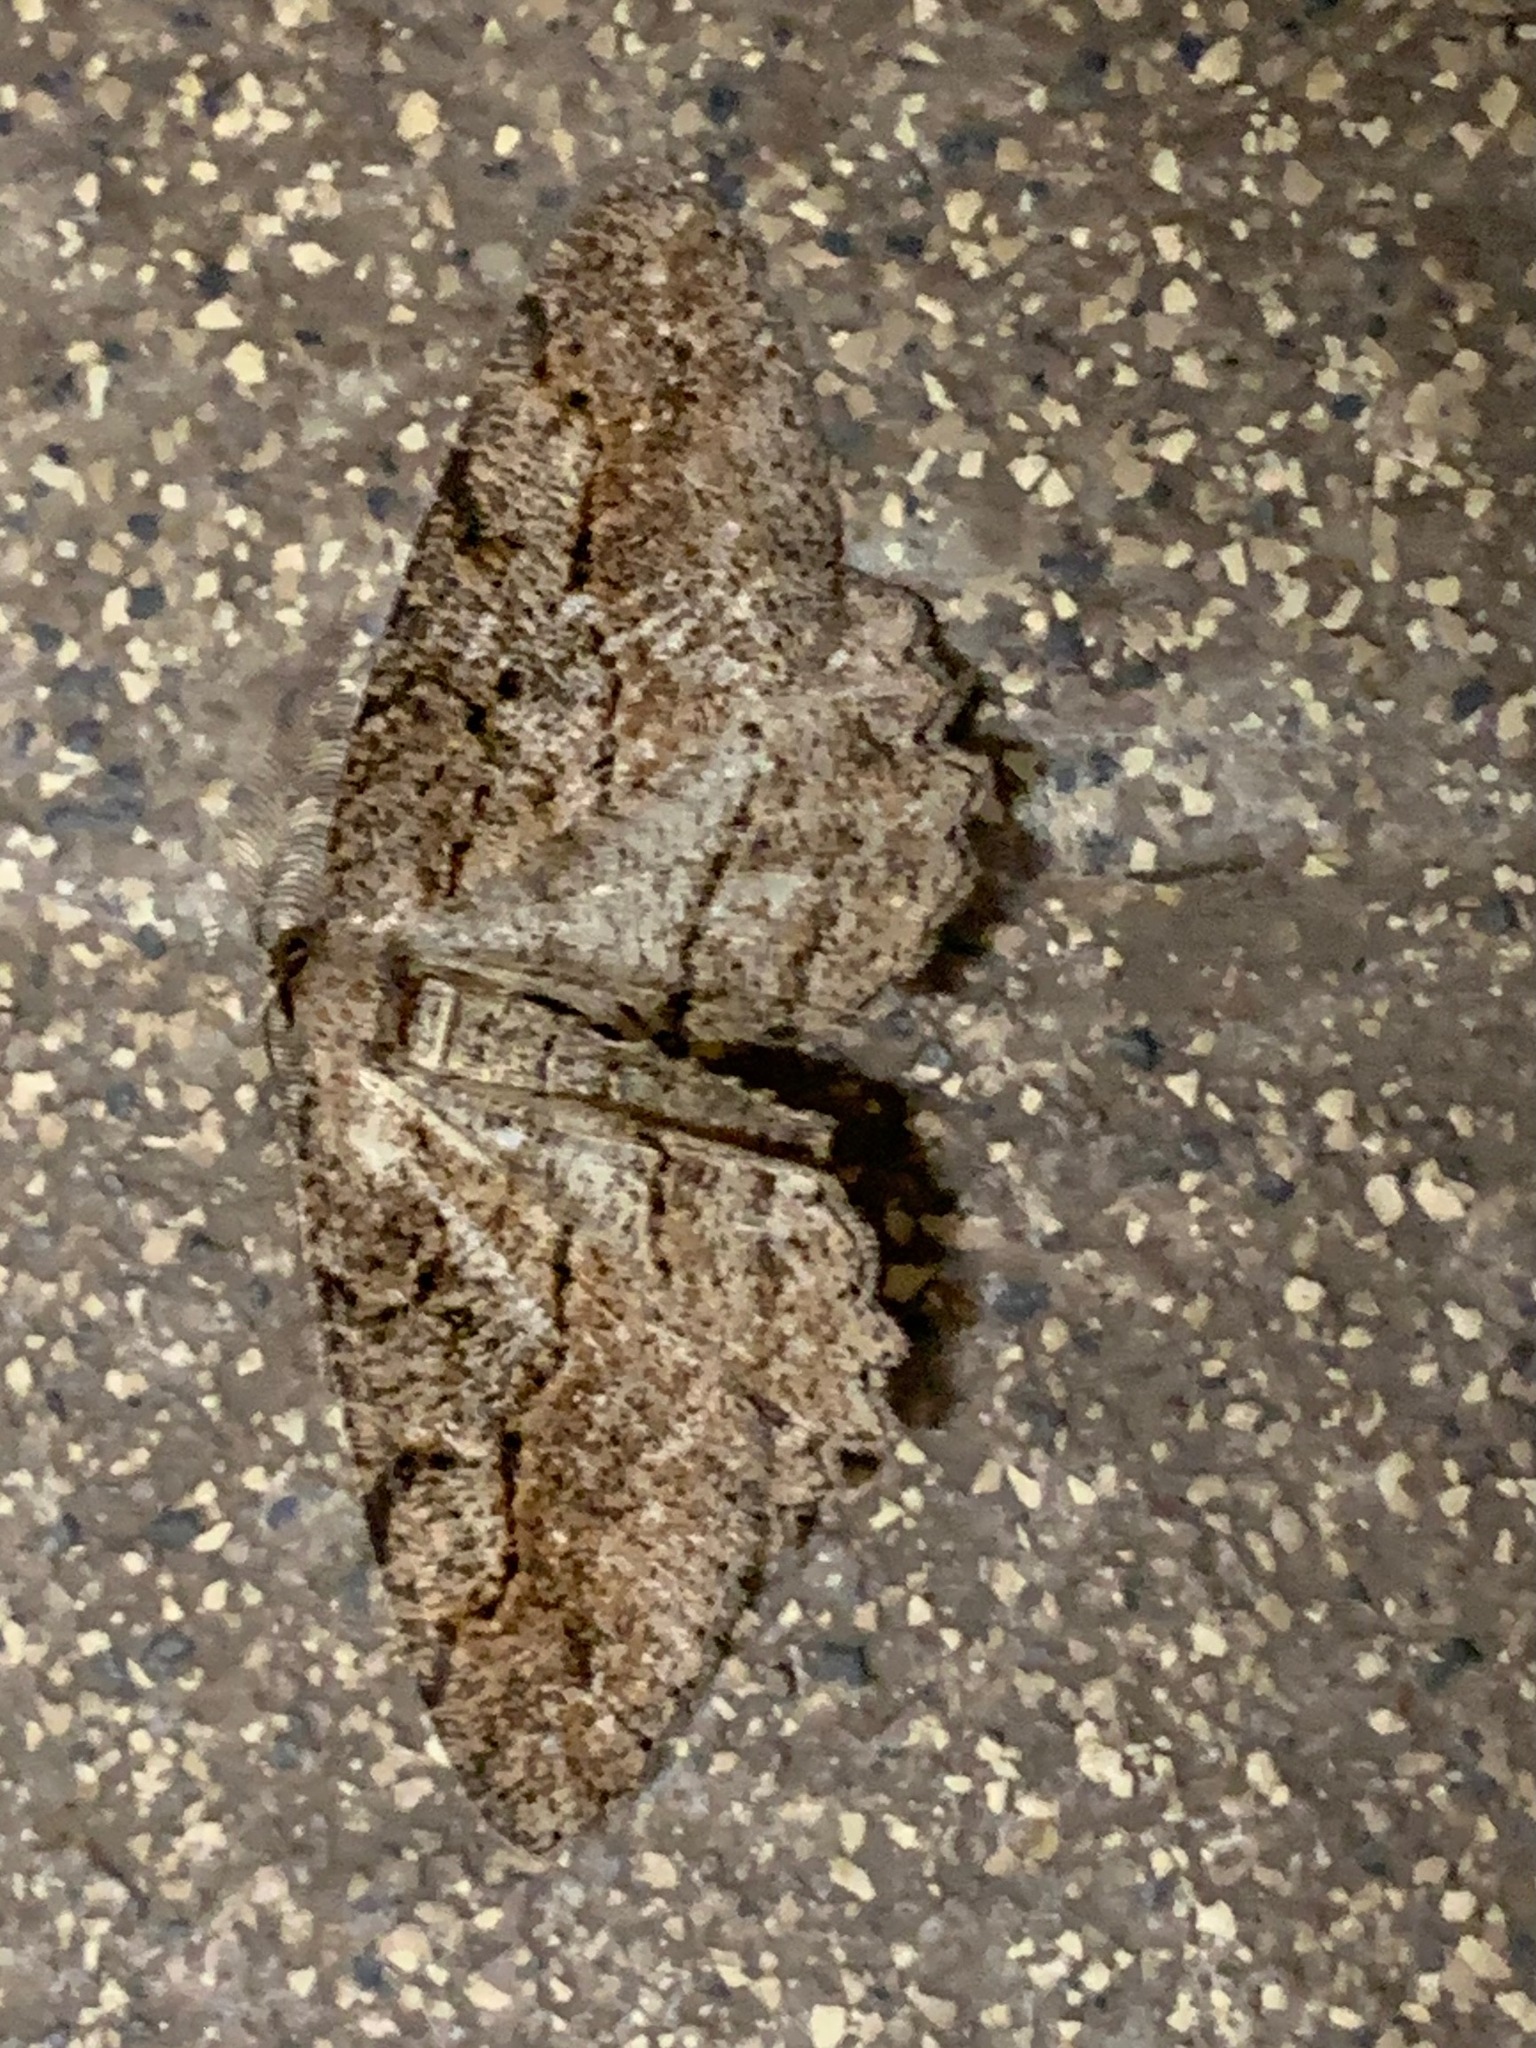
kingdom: Animalia
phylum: Arthropoda
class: Insecta
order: Lepidoptera
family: Geometridae
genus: Neoalcis
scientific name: Neoalcis californiaria
